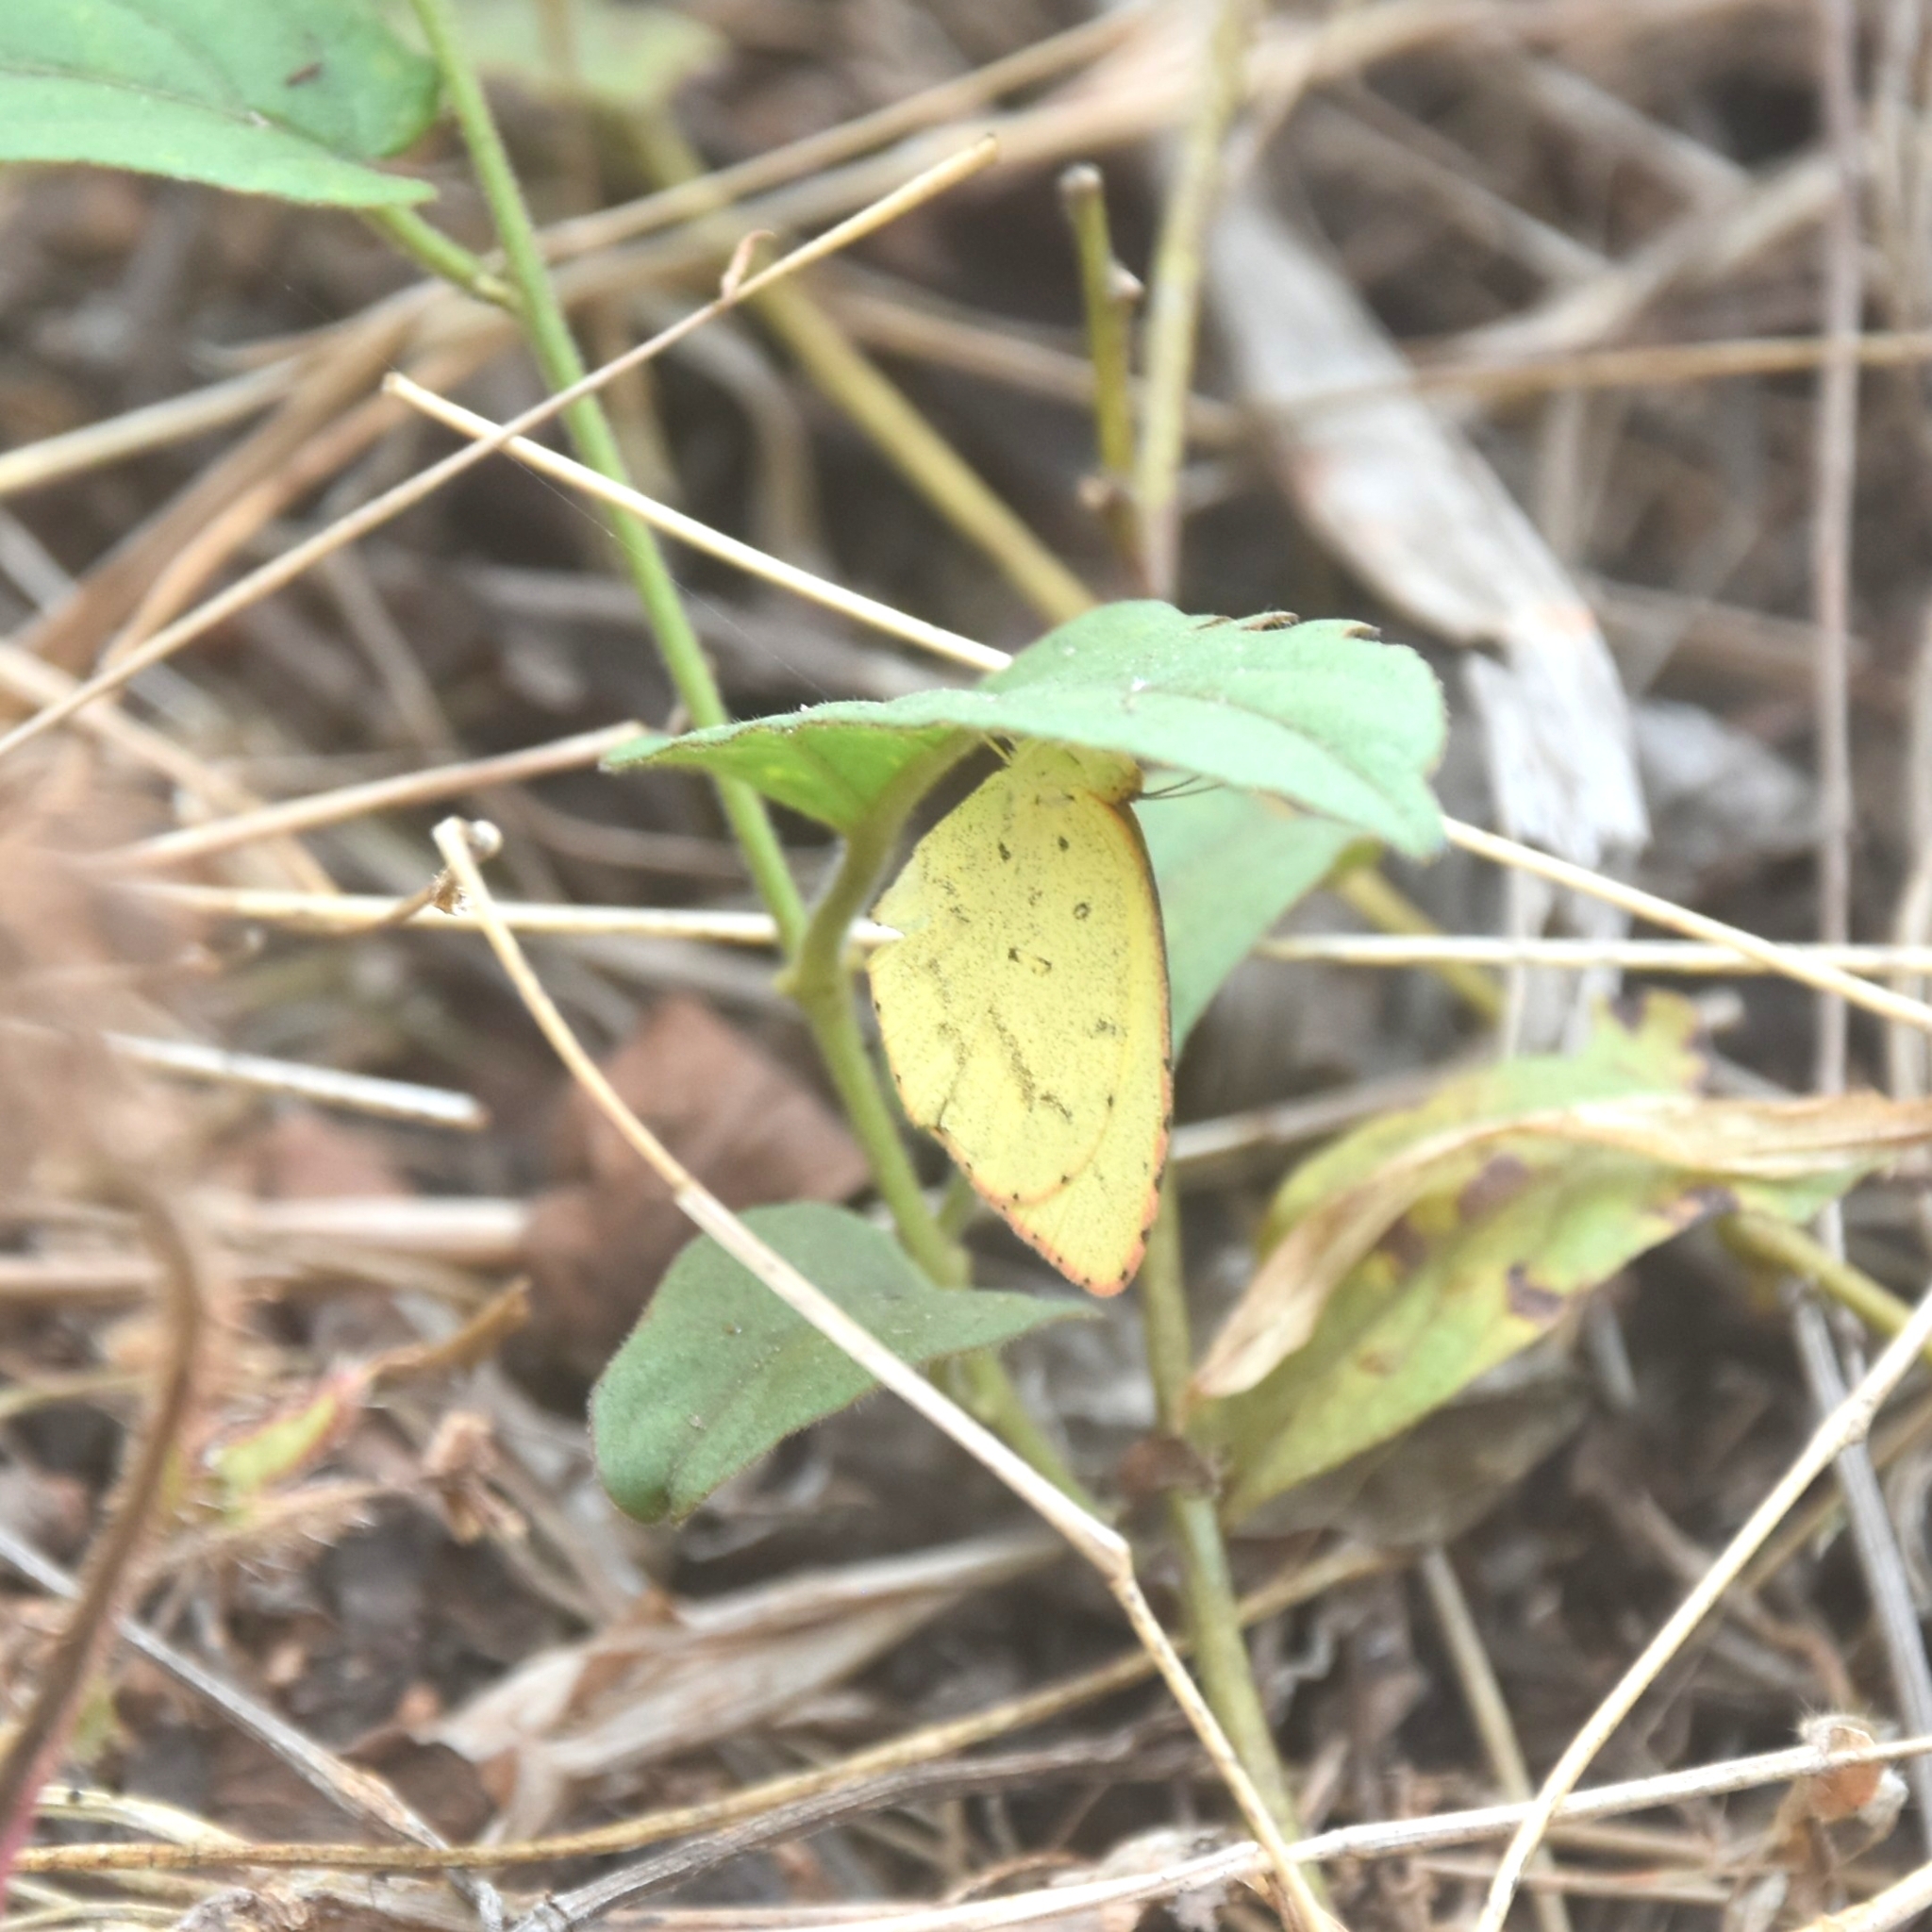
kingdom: Animalia
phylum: Arthropoda
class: Insecta
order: Lepidoptera
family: Pieridae
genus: Eurema
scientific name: Eurema brigitta
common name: Small grass yellow
